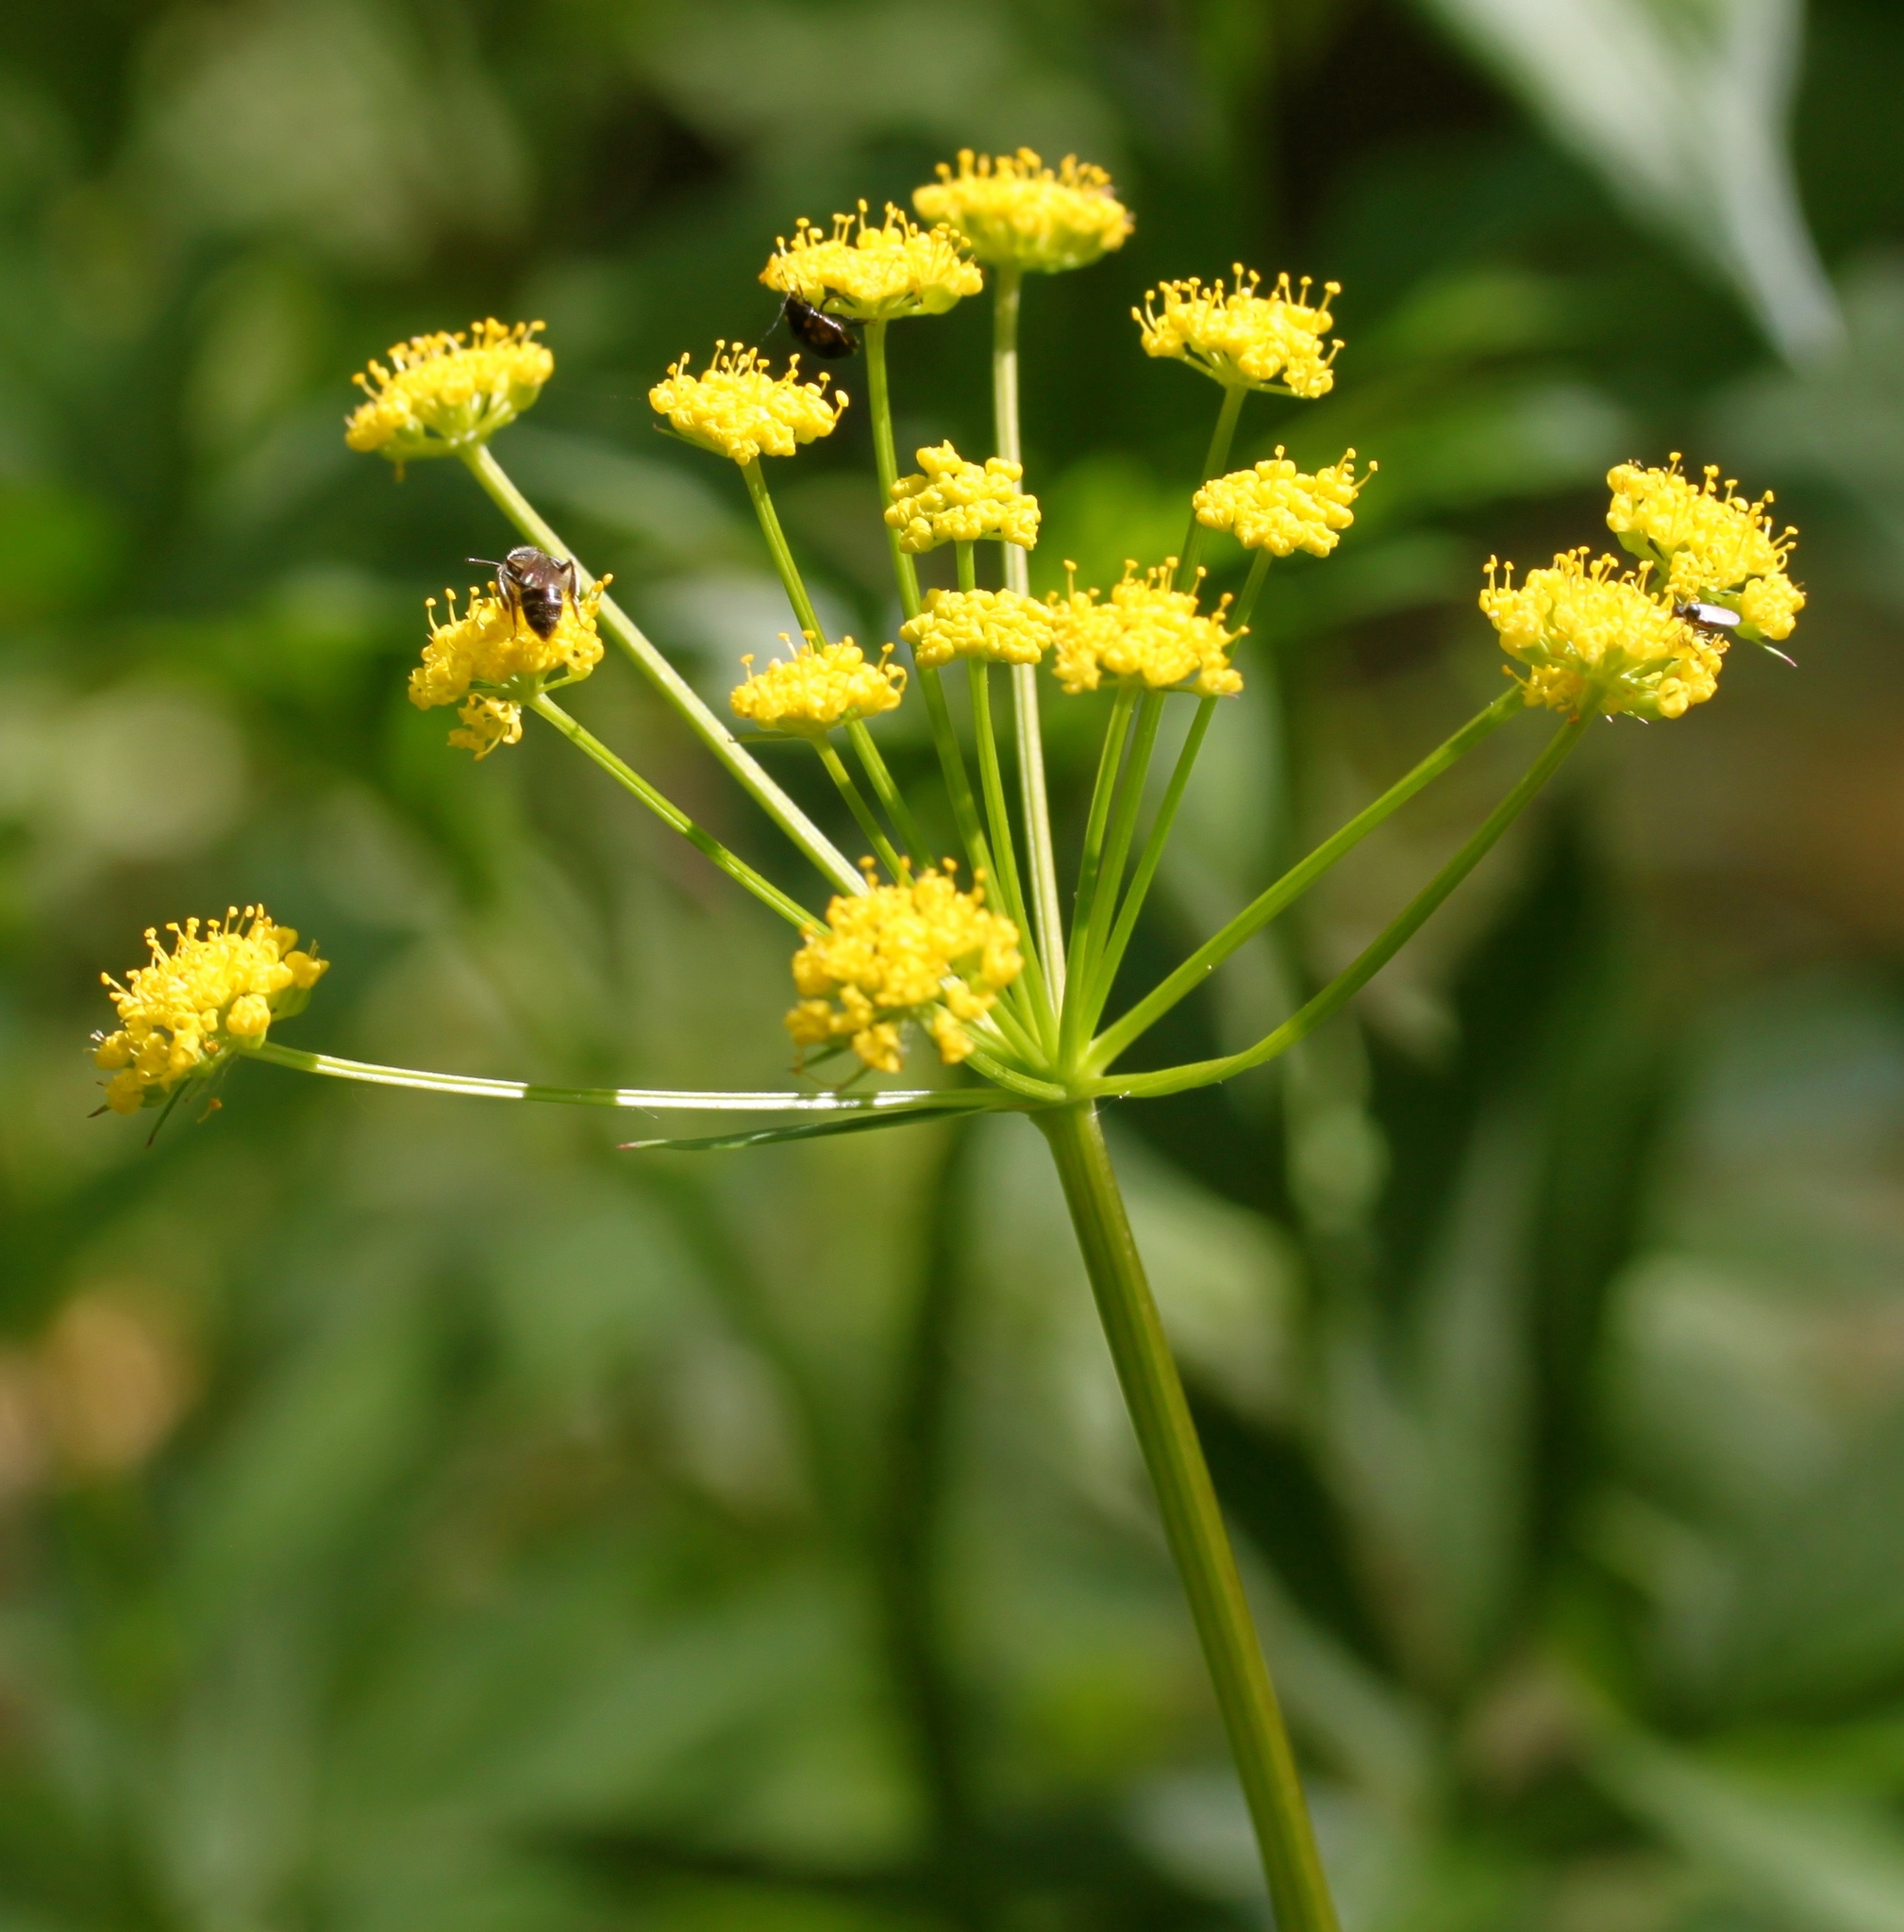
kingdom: Plantae
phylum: Tracheophyta
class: Magnoliopsida
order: Apiales
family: Apiaceae
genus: Zizia
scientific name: Zizia aurea
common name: Golden alexanders
